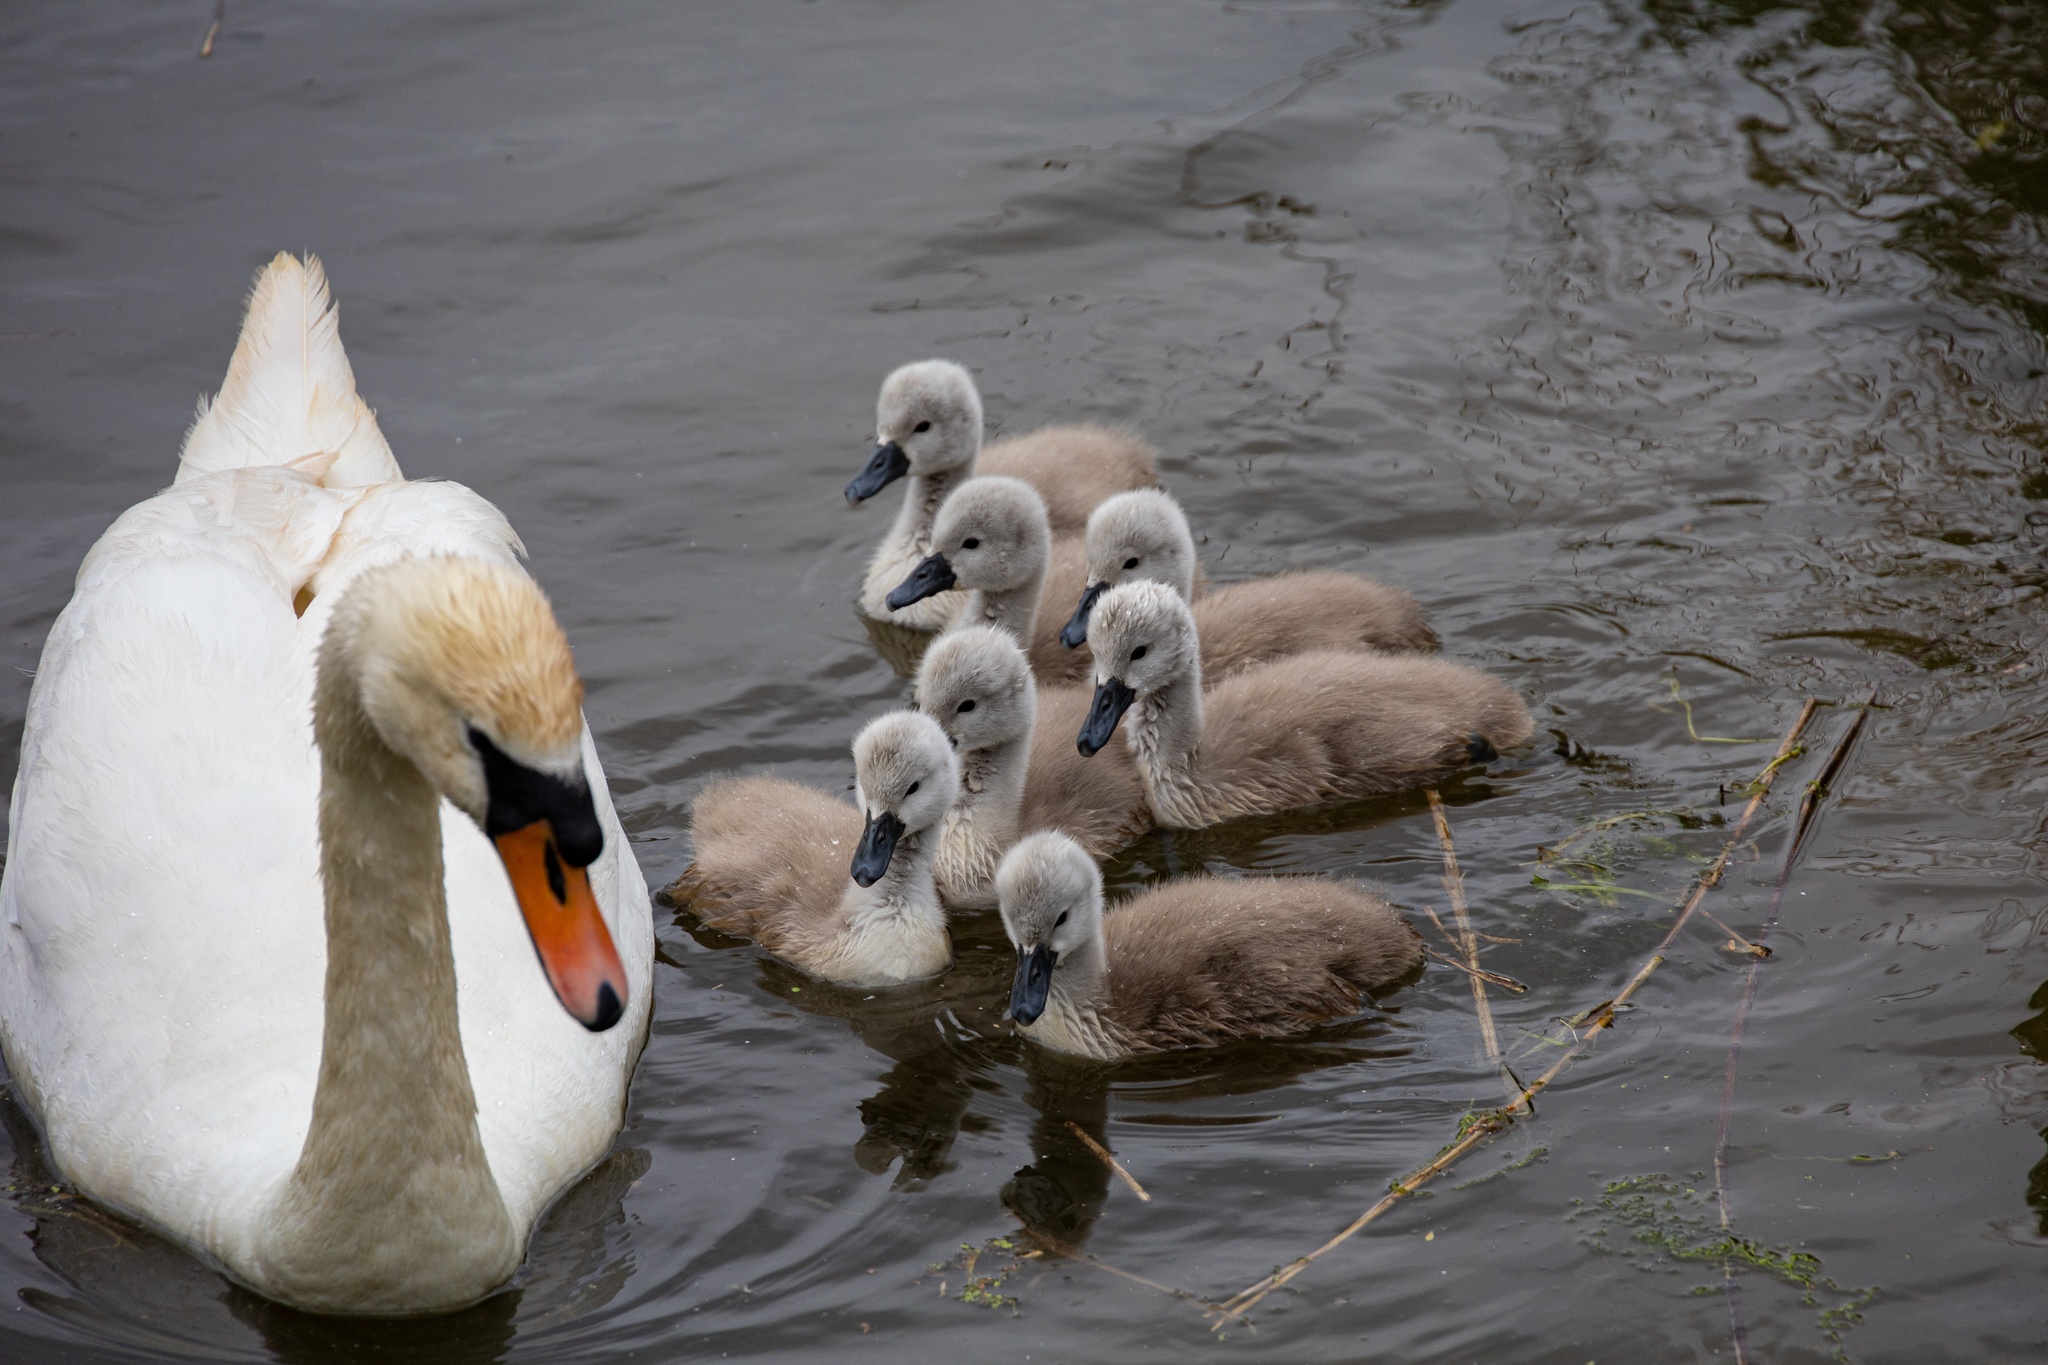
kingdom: Animalia
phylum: Chordata
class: Aves
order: Anseriformes
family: Anatidae
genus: Cygnus
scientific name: Cygnus olor
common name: Mute swan
